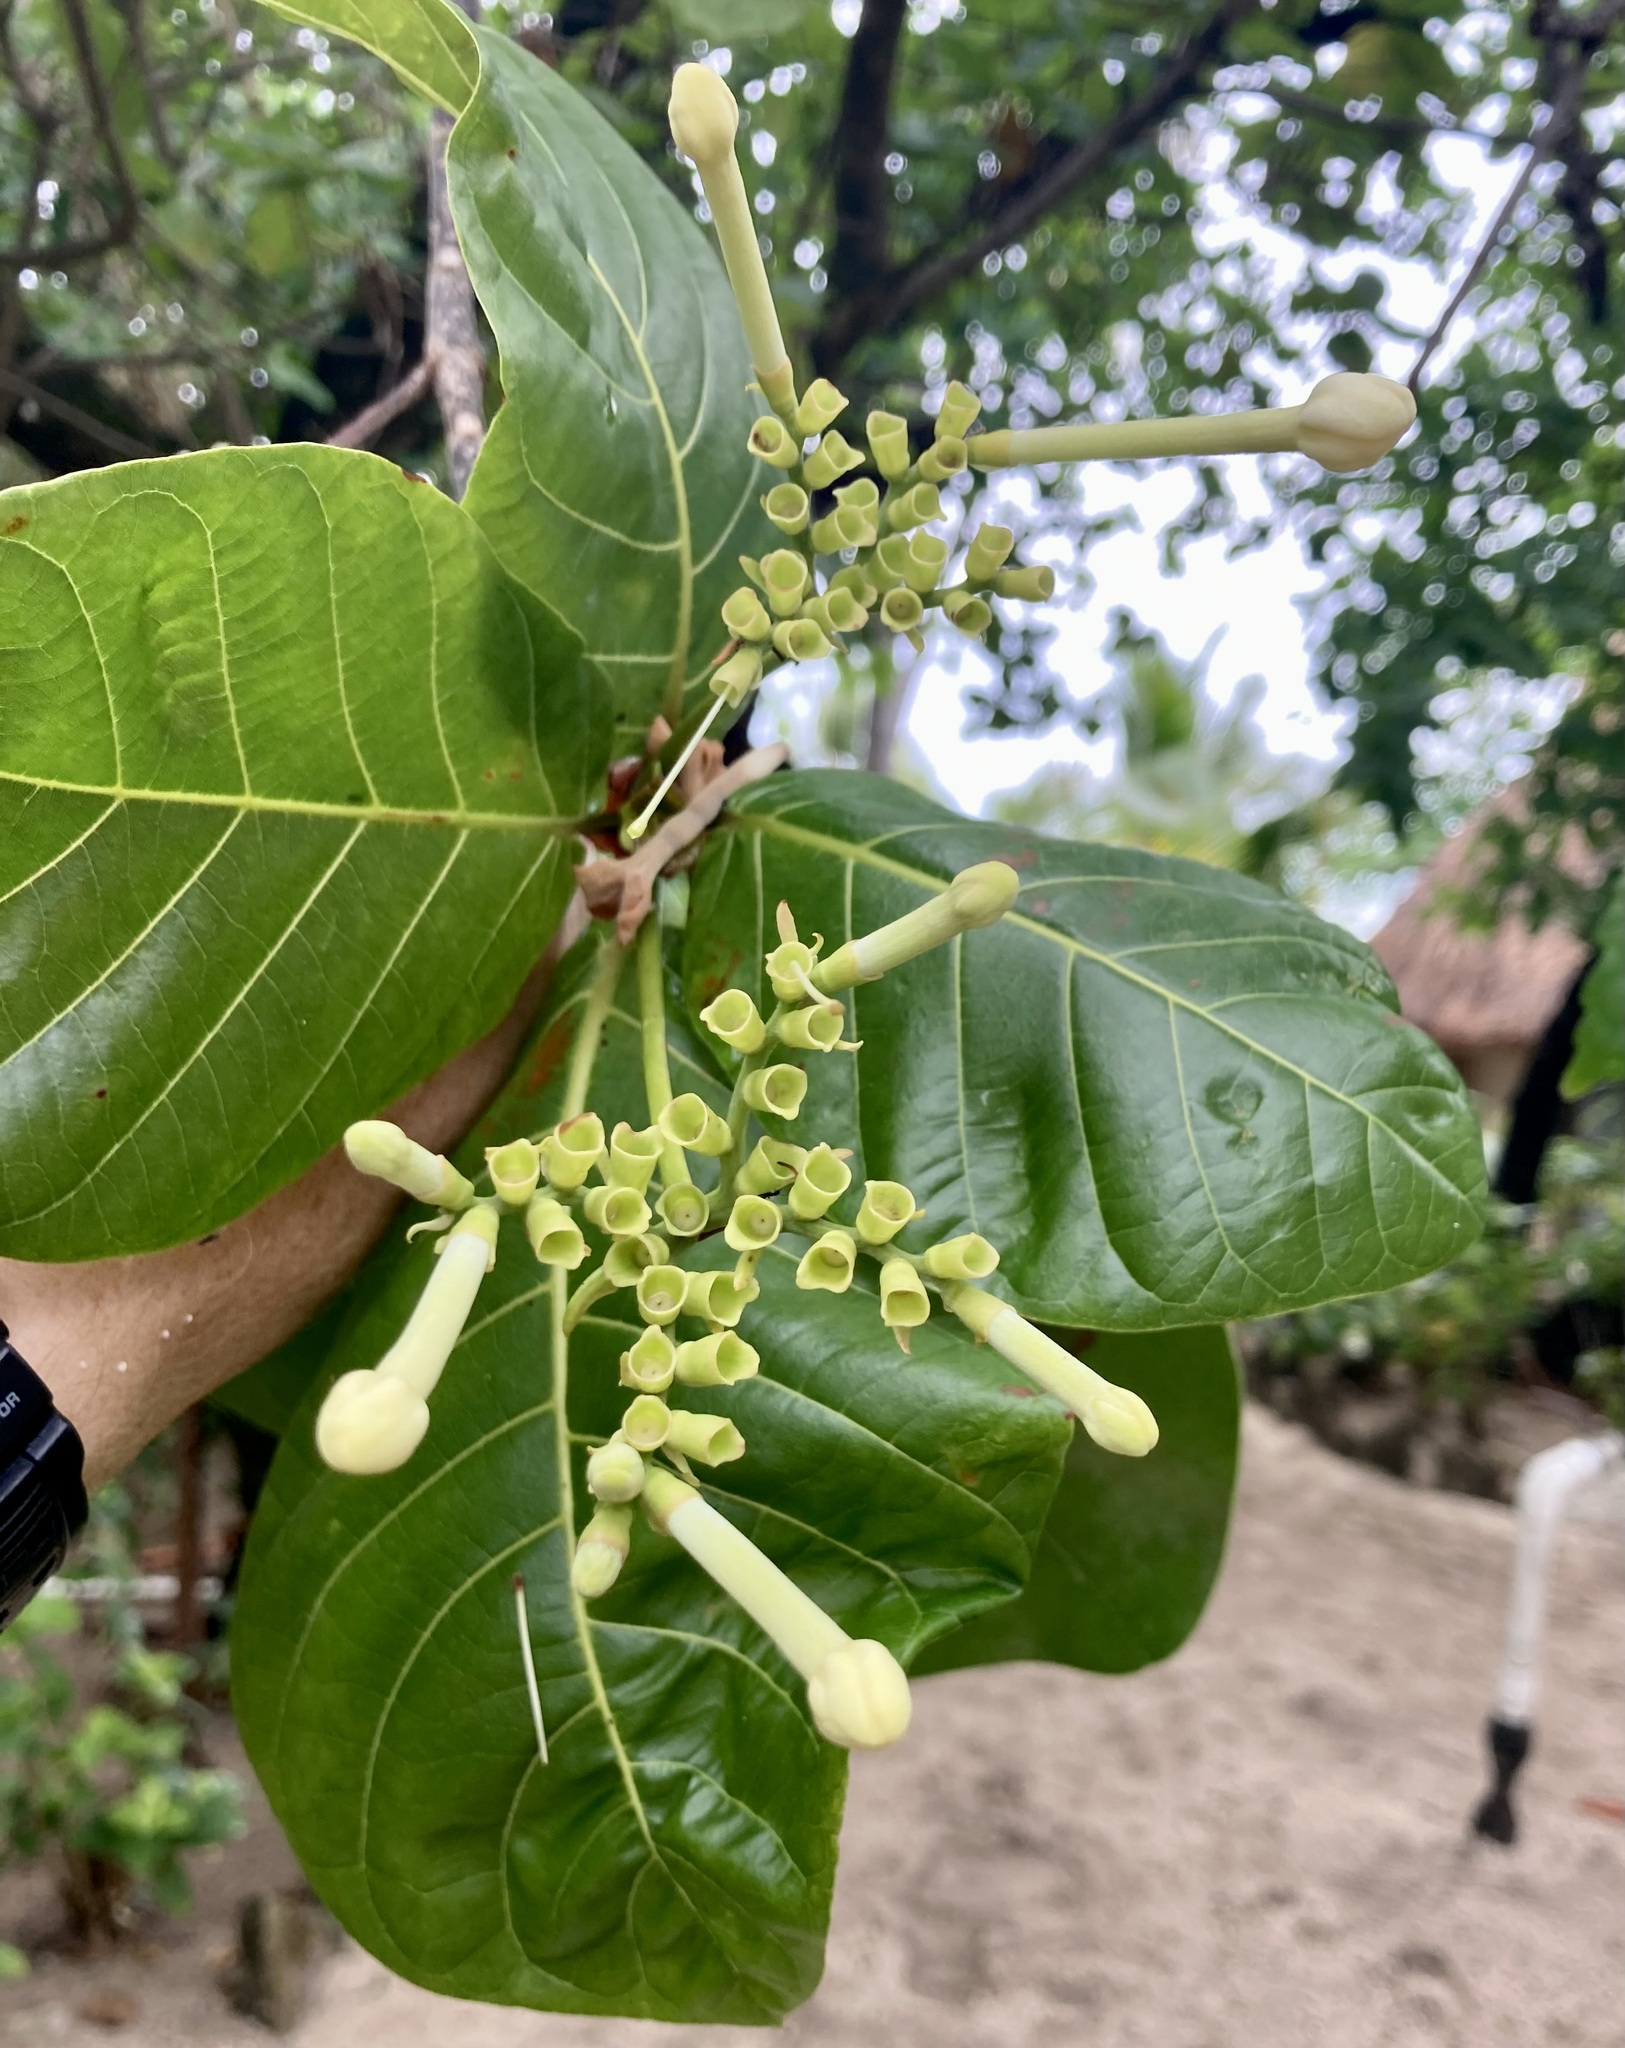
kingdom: Plantae
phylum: Tracheophyta
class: Magnoliopsida
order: Gentianales
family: Rubiaceae
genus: Guettarda
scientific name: Guettarda speciosa
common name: Sea randa
